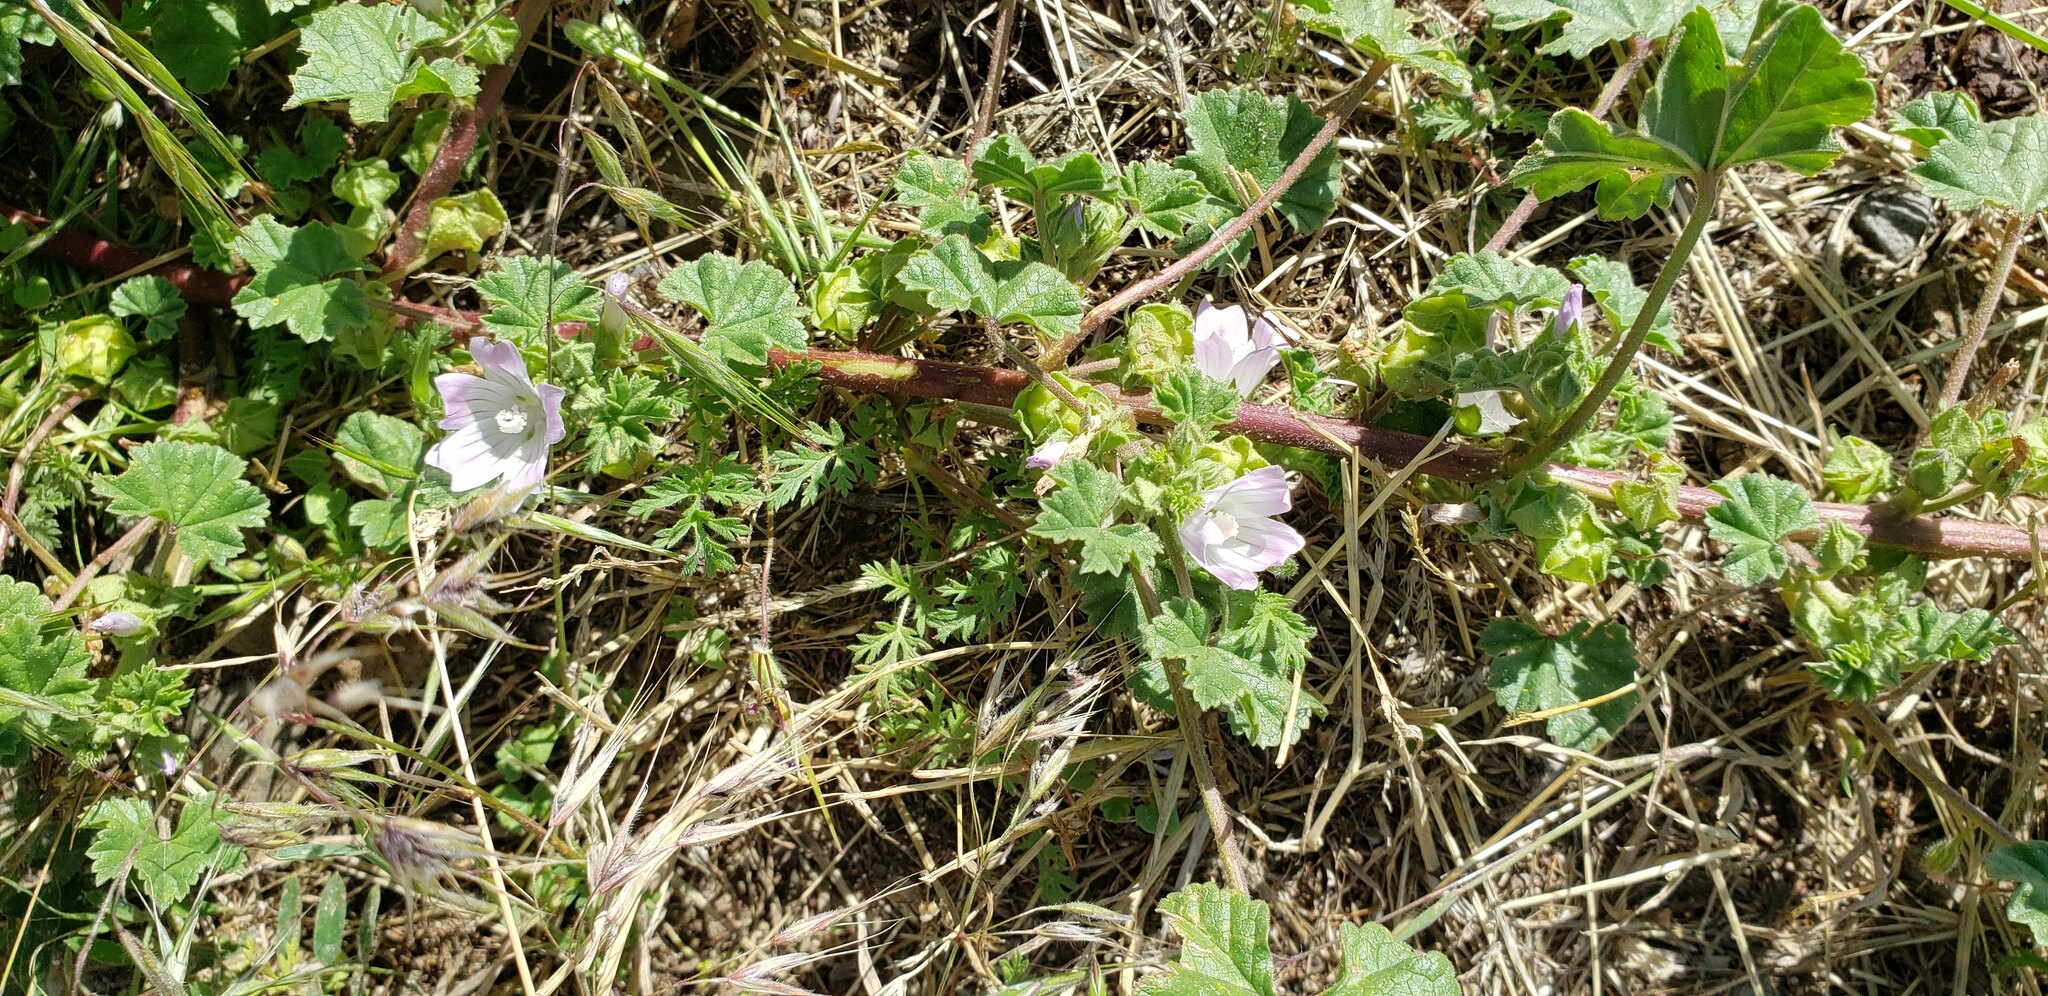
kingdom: Plantae
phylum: Tracheophyta
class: Magnoliopsida
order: Malvales
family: Malvaceae
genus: Malva
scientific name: Malva neglecta
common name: Common mallow
